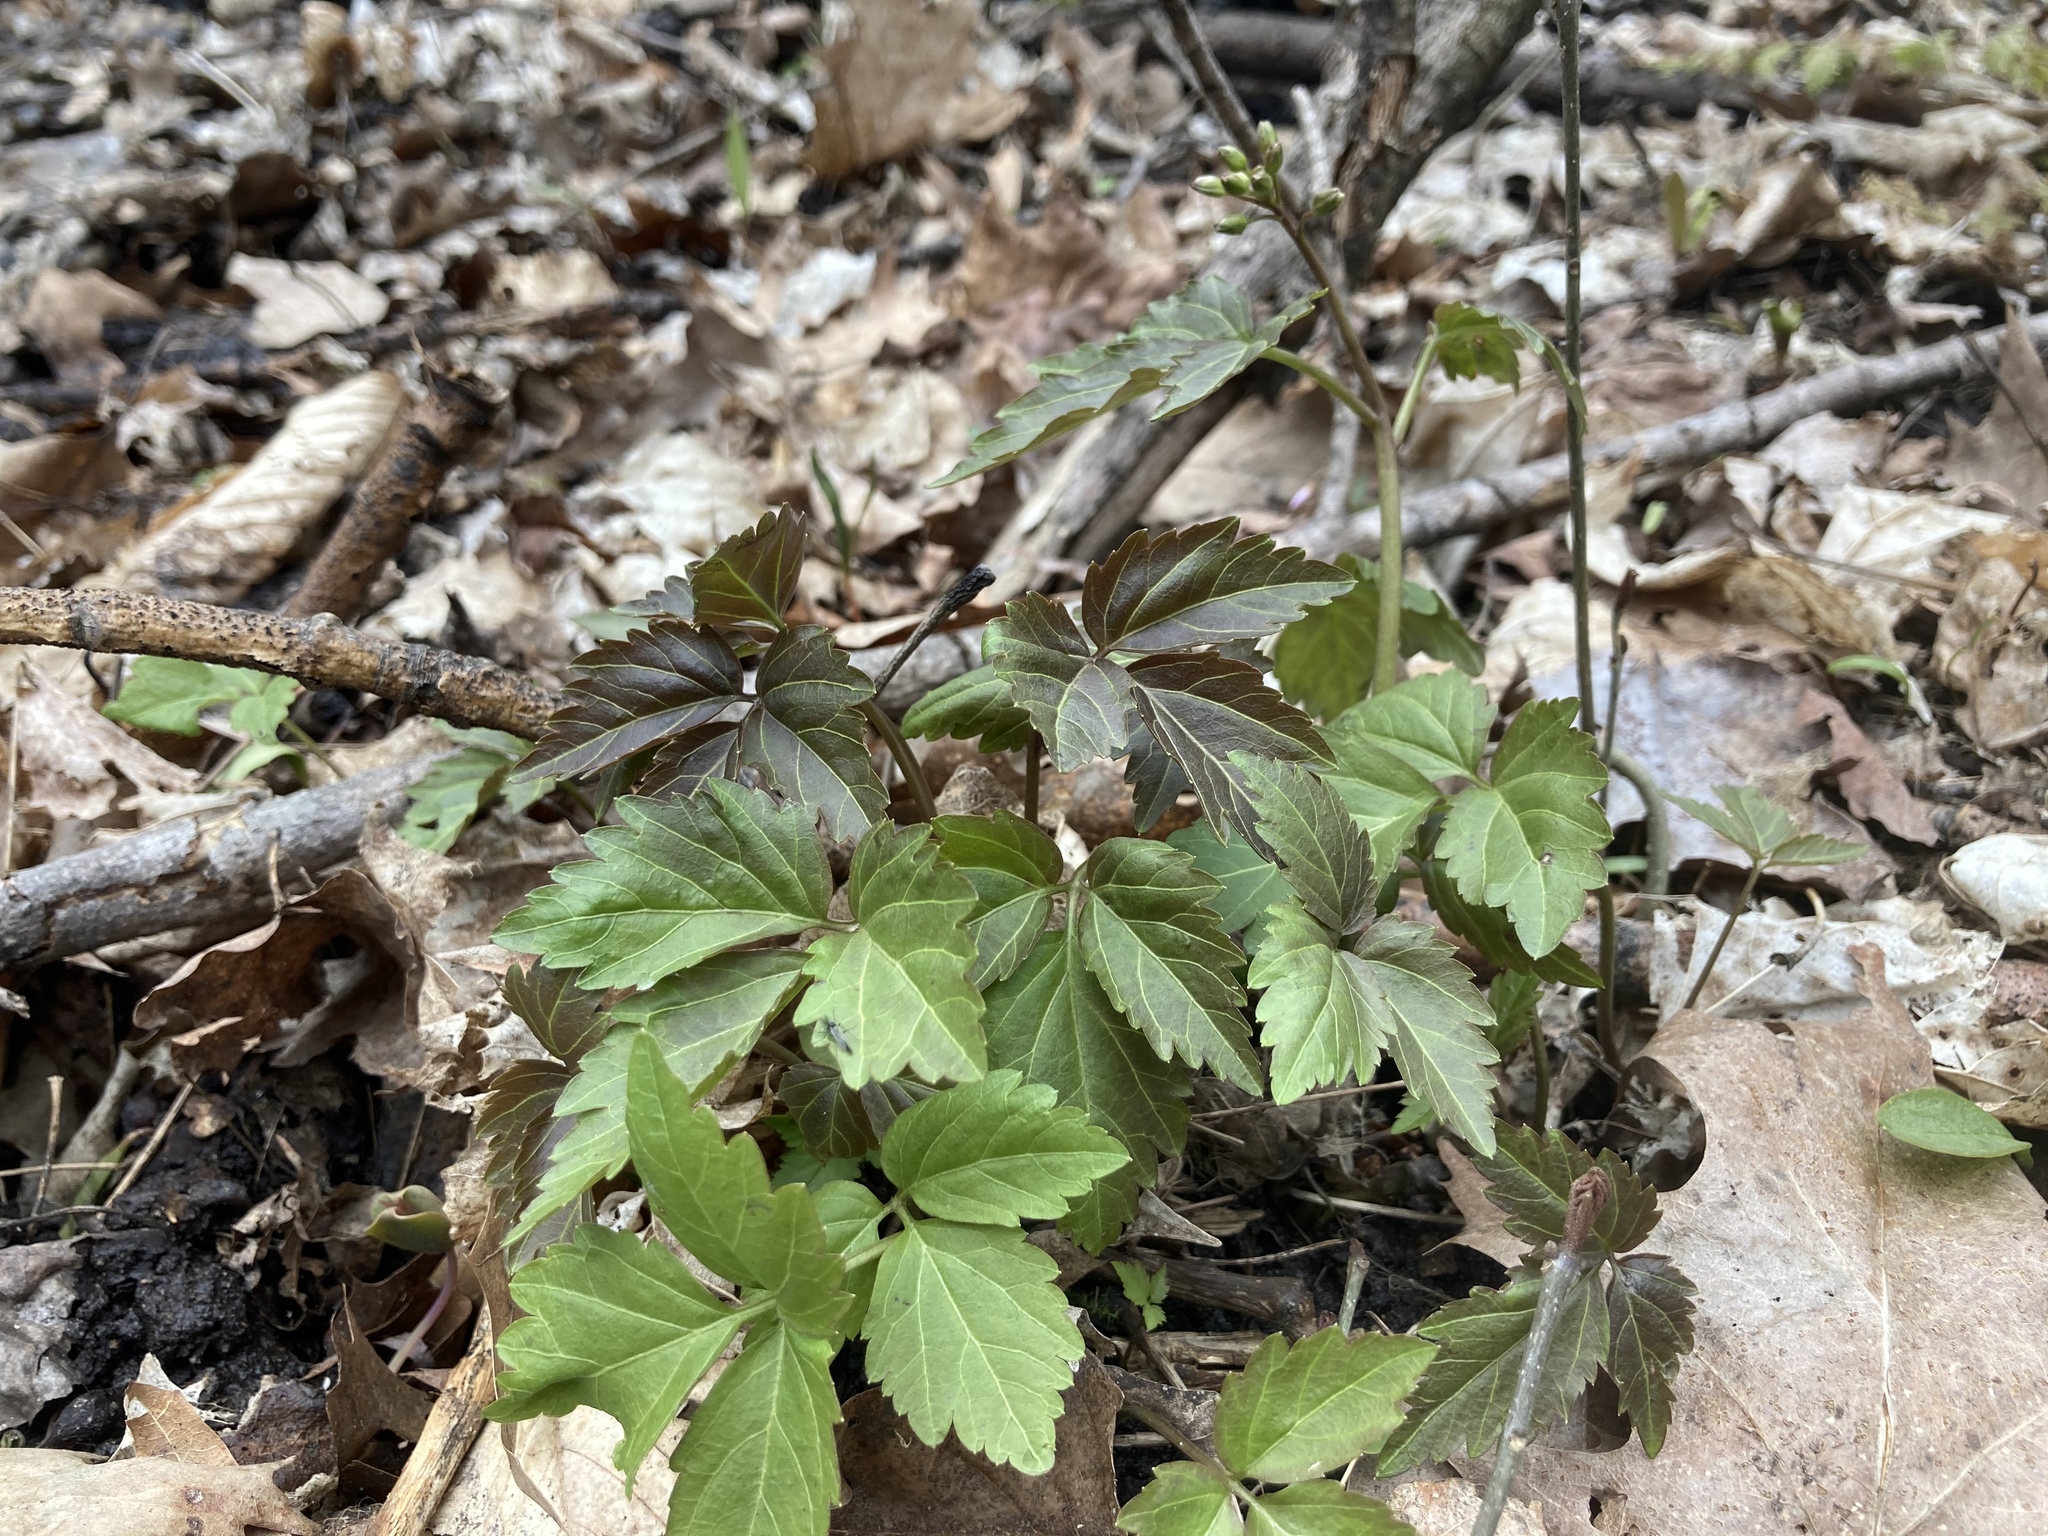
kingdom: Plantae
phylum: Tracheophyta
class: Magnoliopsida
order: Brassicales
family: Brassicaceae
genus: Cardamine
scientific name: Cardamine diphylla
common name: Broad-leaved toothwort
